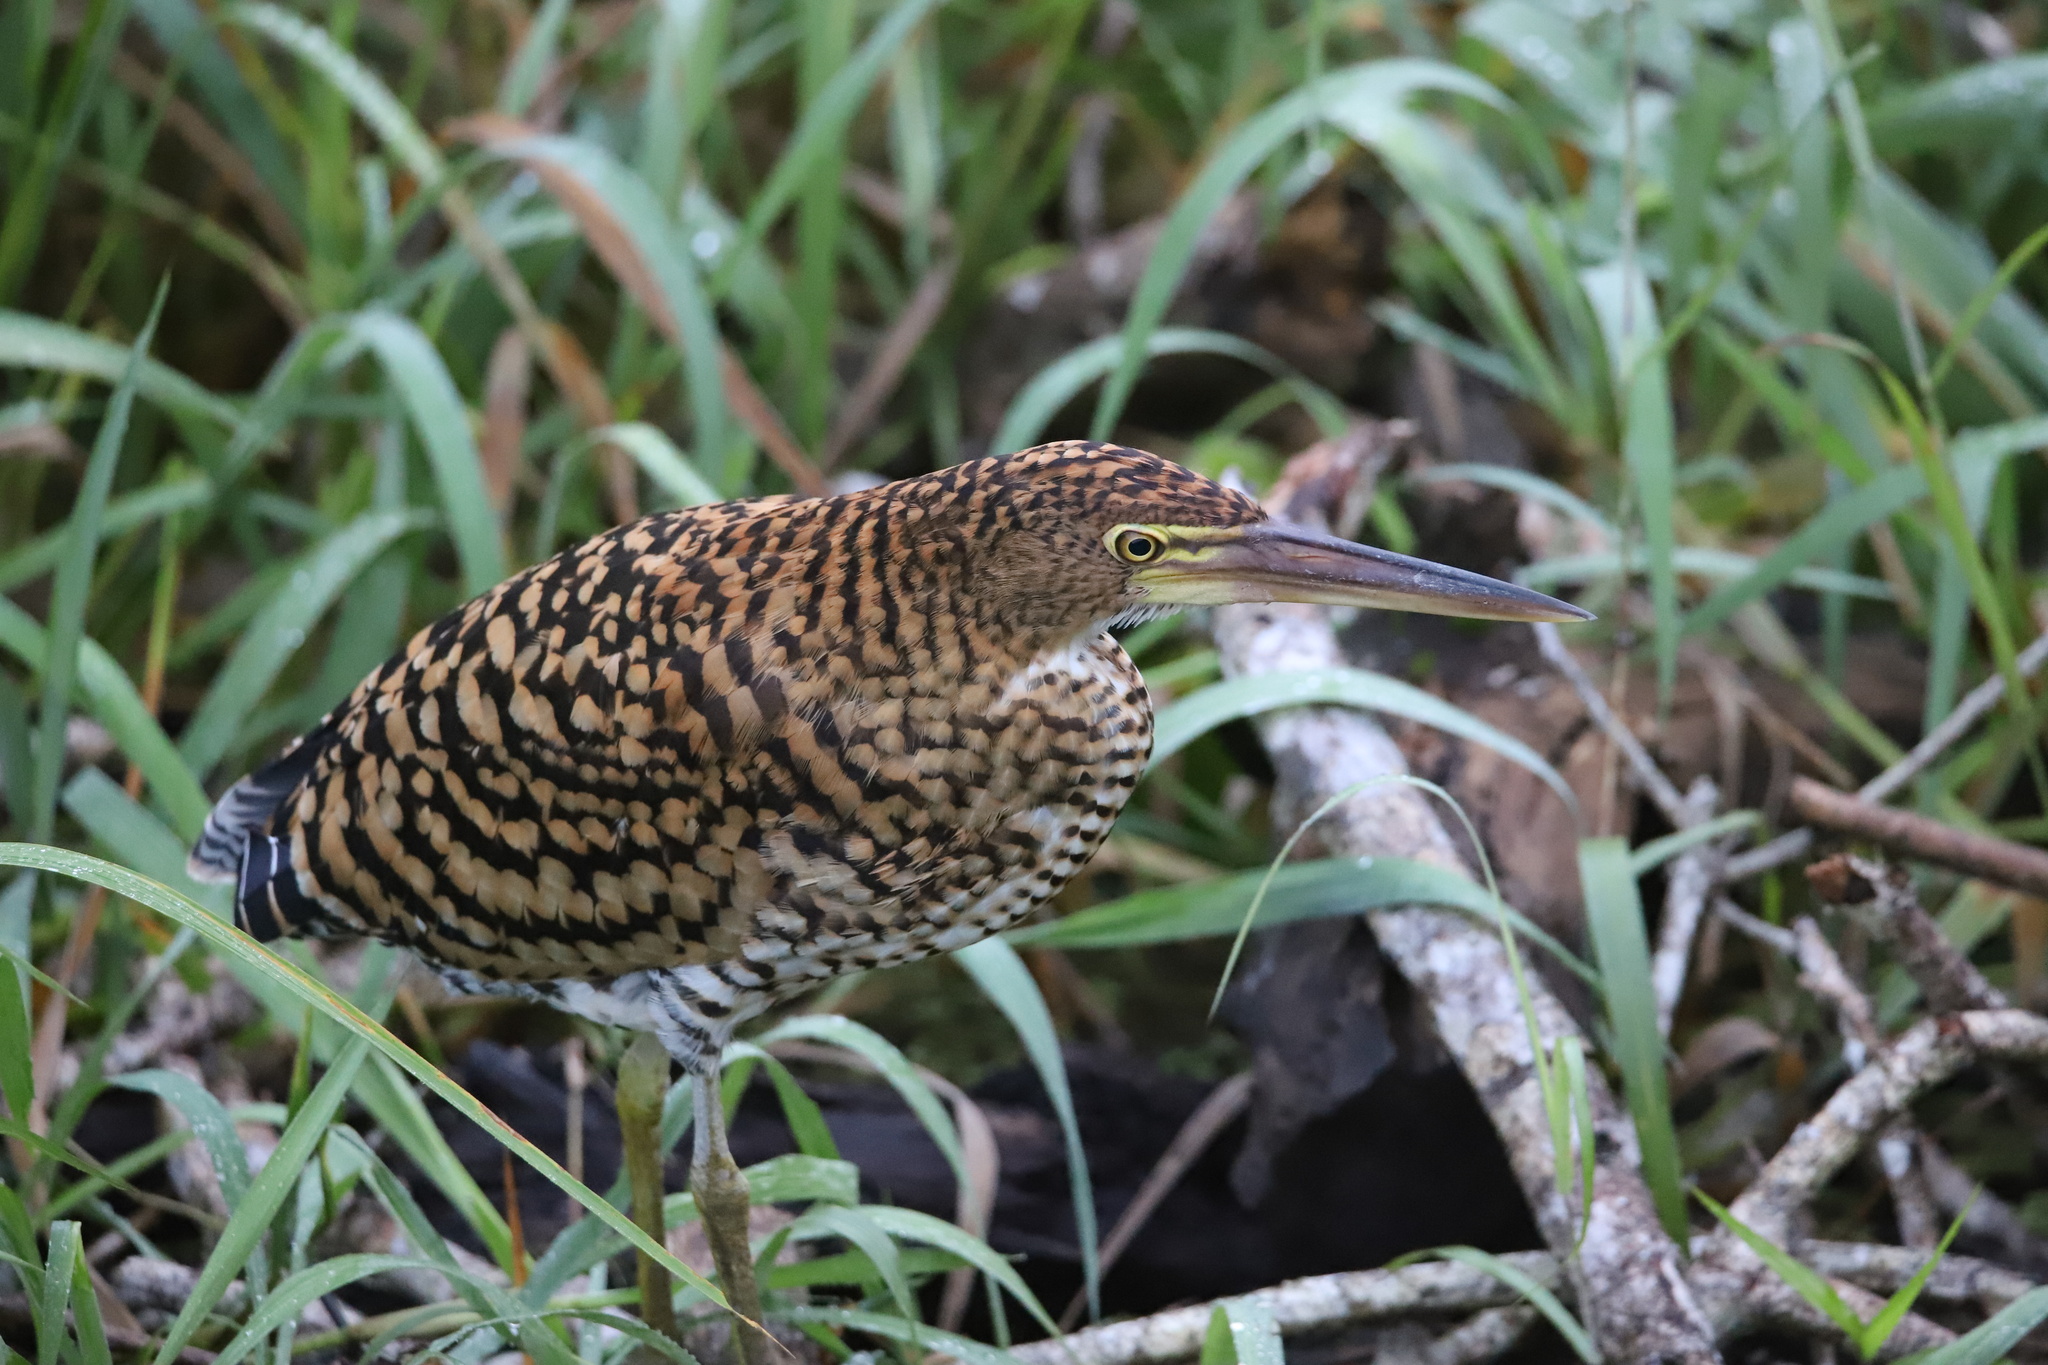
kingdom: Animalia
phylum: Chordata
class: Aves
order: Pelecaniformes
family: Ardeidae
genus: Tigrisoma
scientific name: Tigrisoma lineatum
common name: Rufescent tiger-heron
